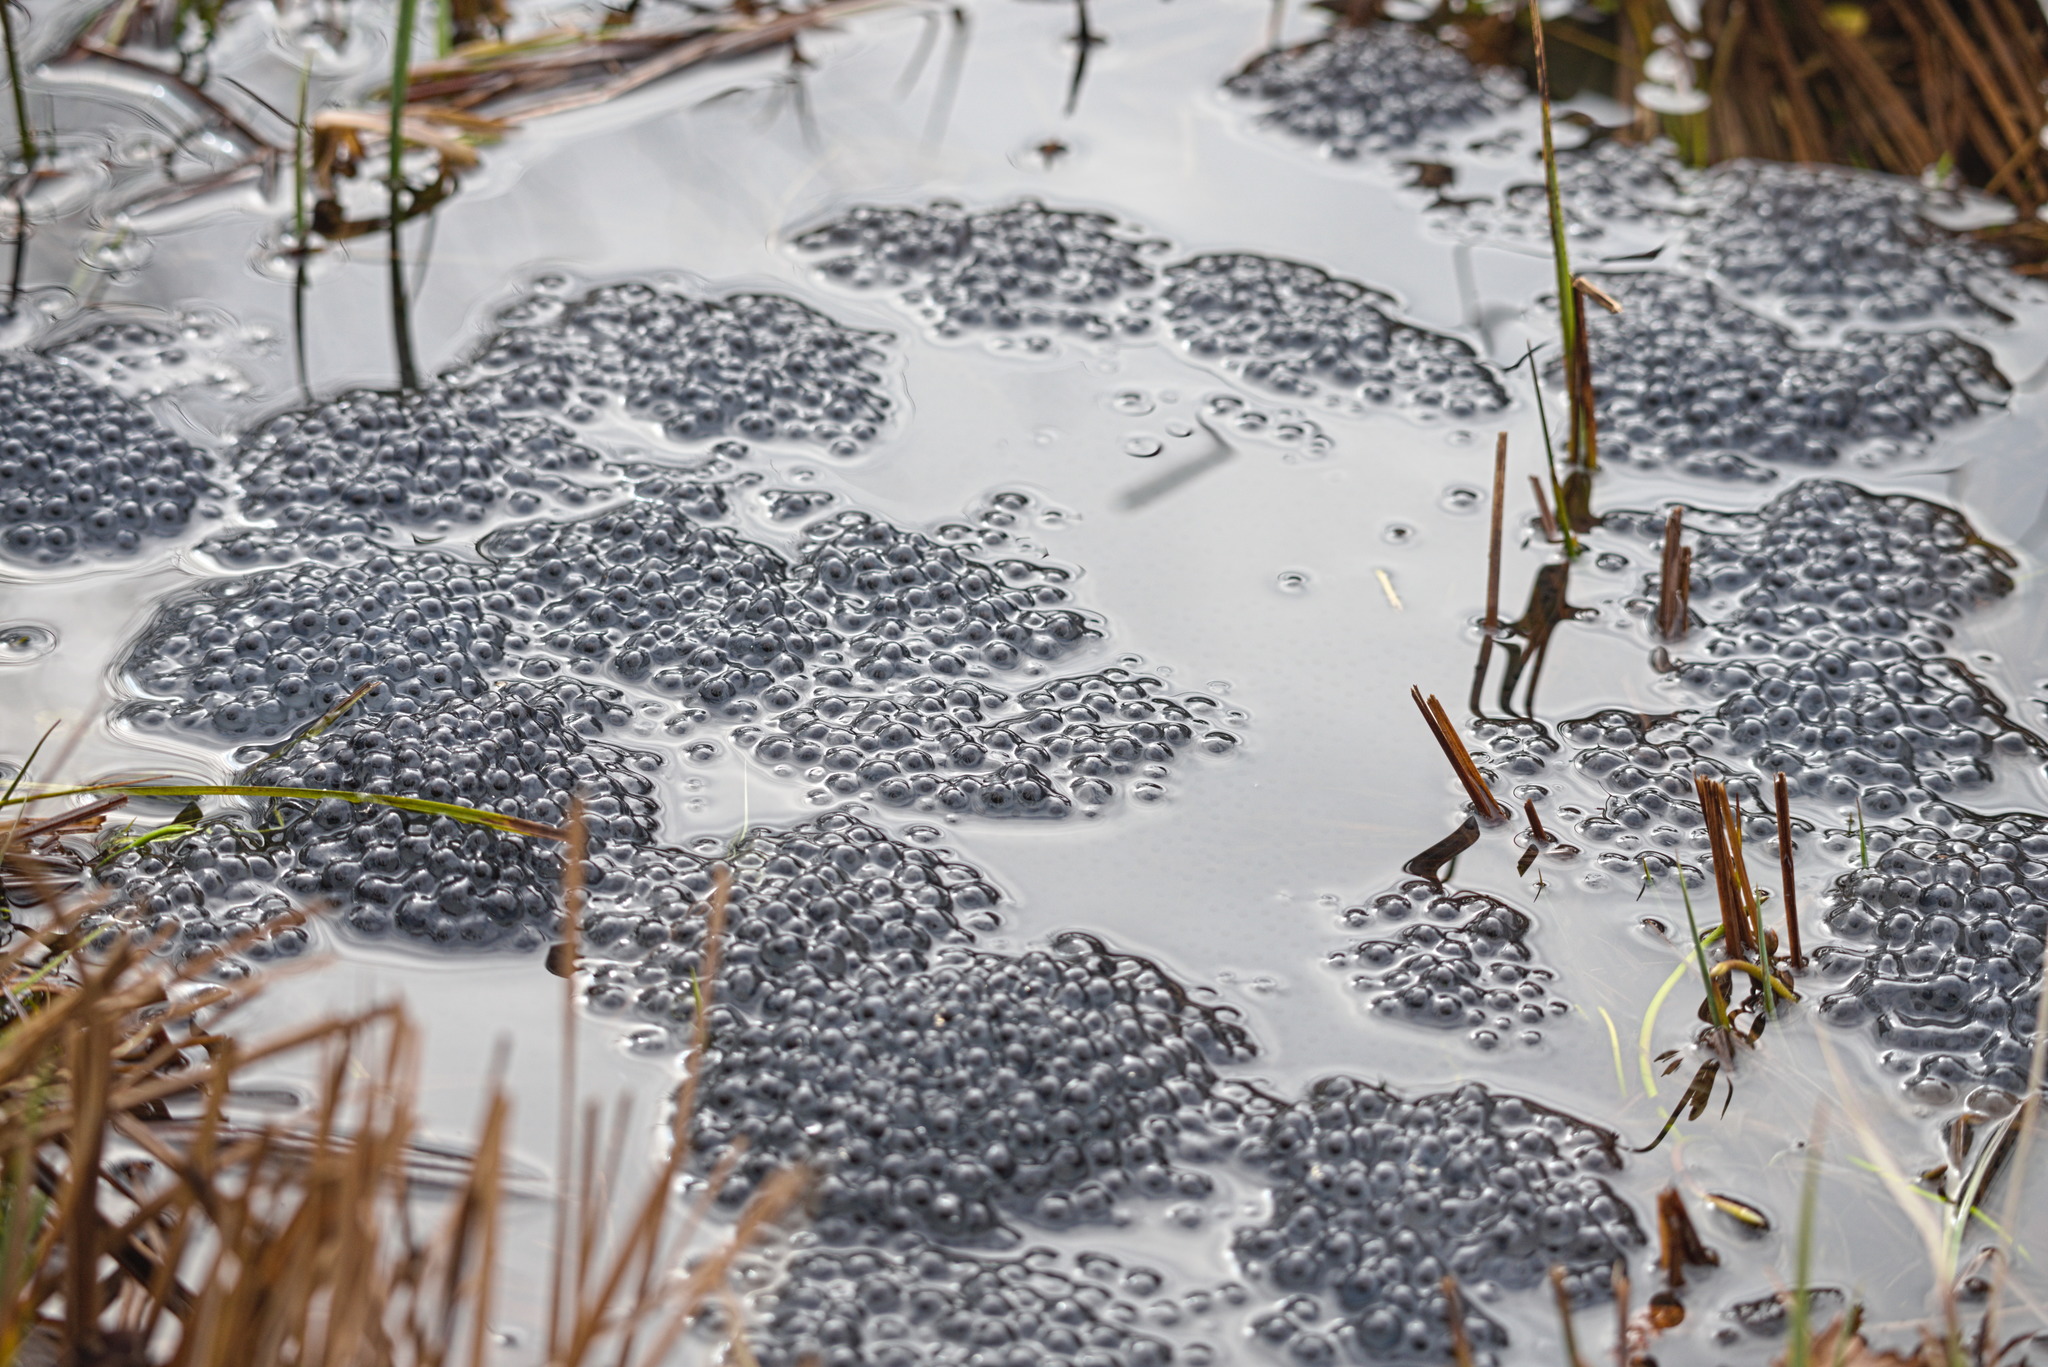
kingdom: Animalia
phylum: Chordata
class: Amphibia
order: Anura
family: Ranidae
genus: Rana
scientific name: Rana temporaria
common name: Common frog
